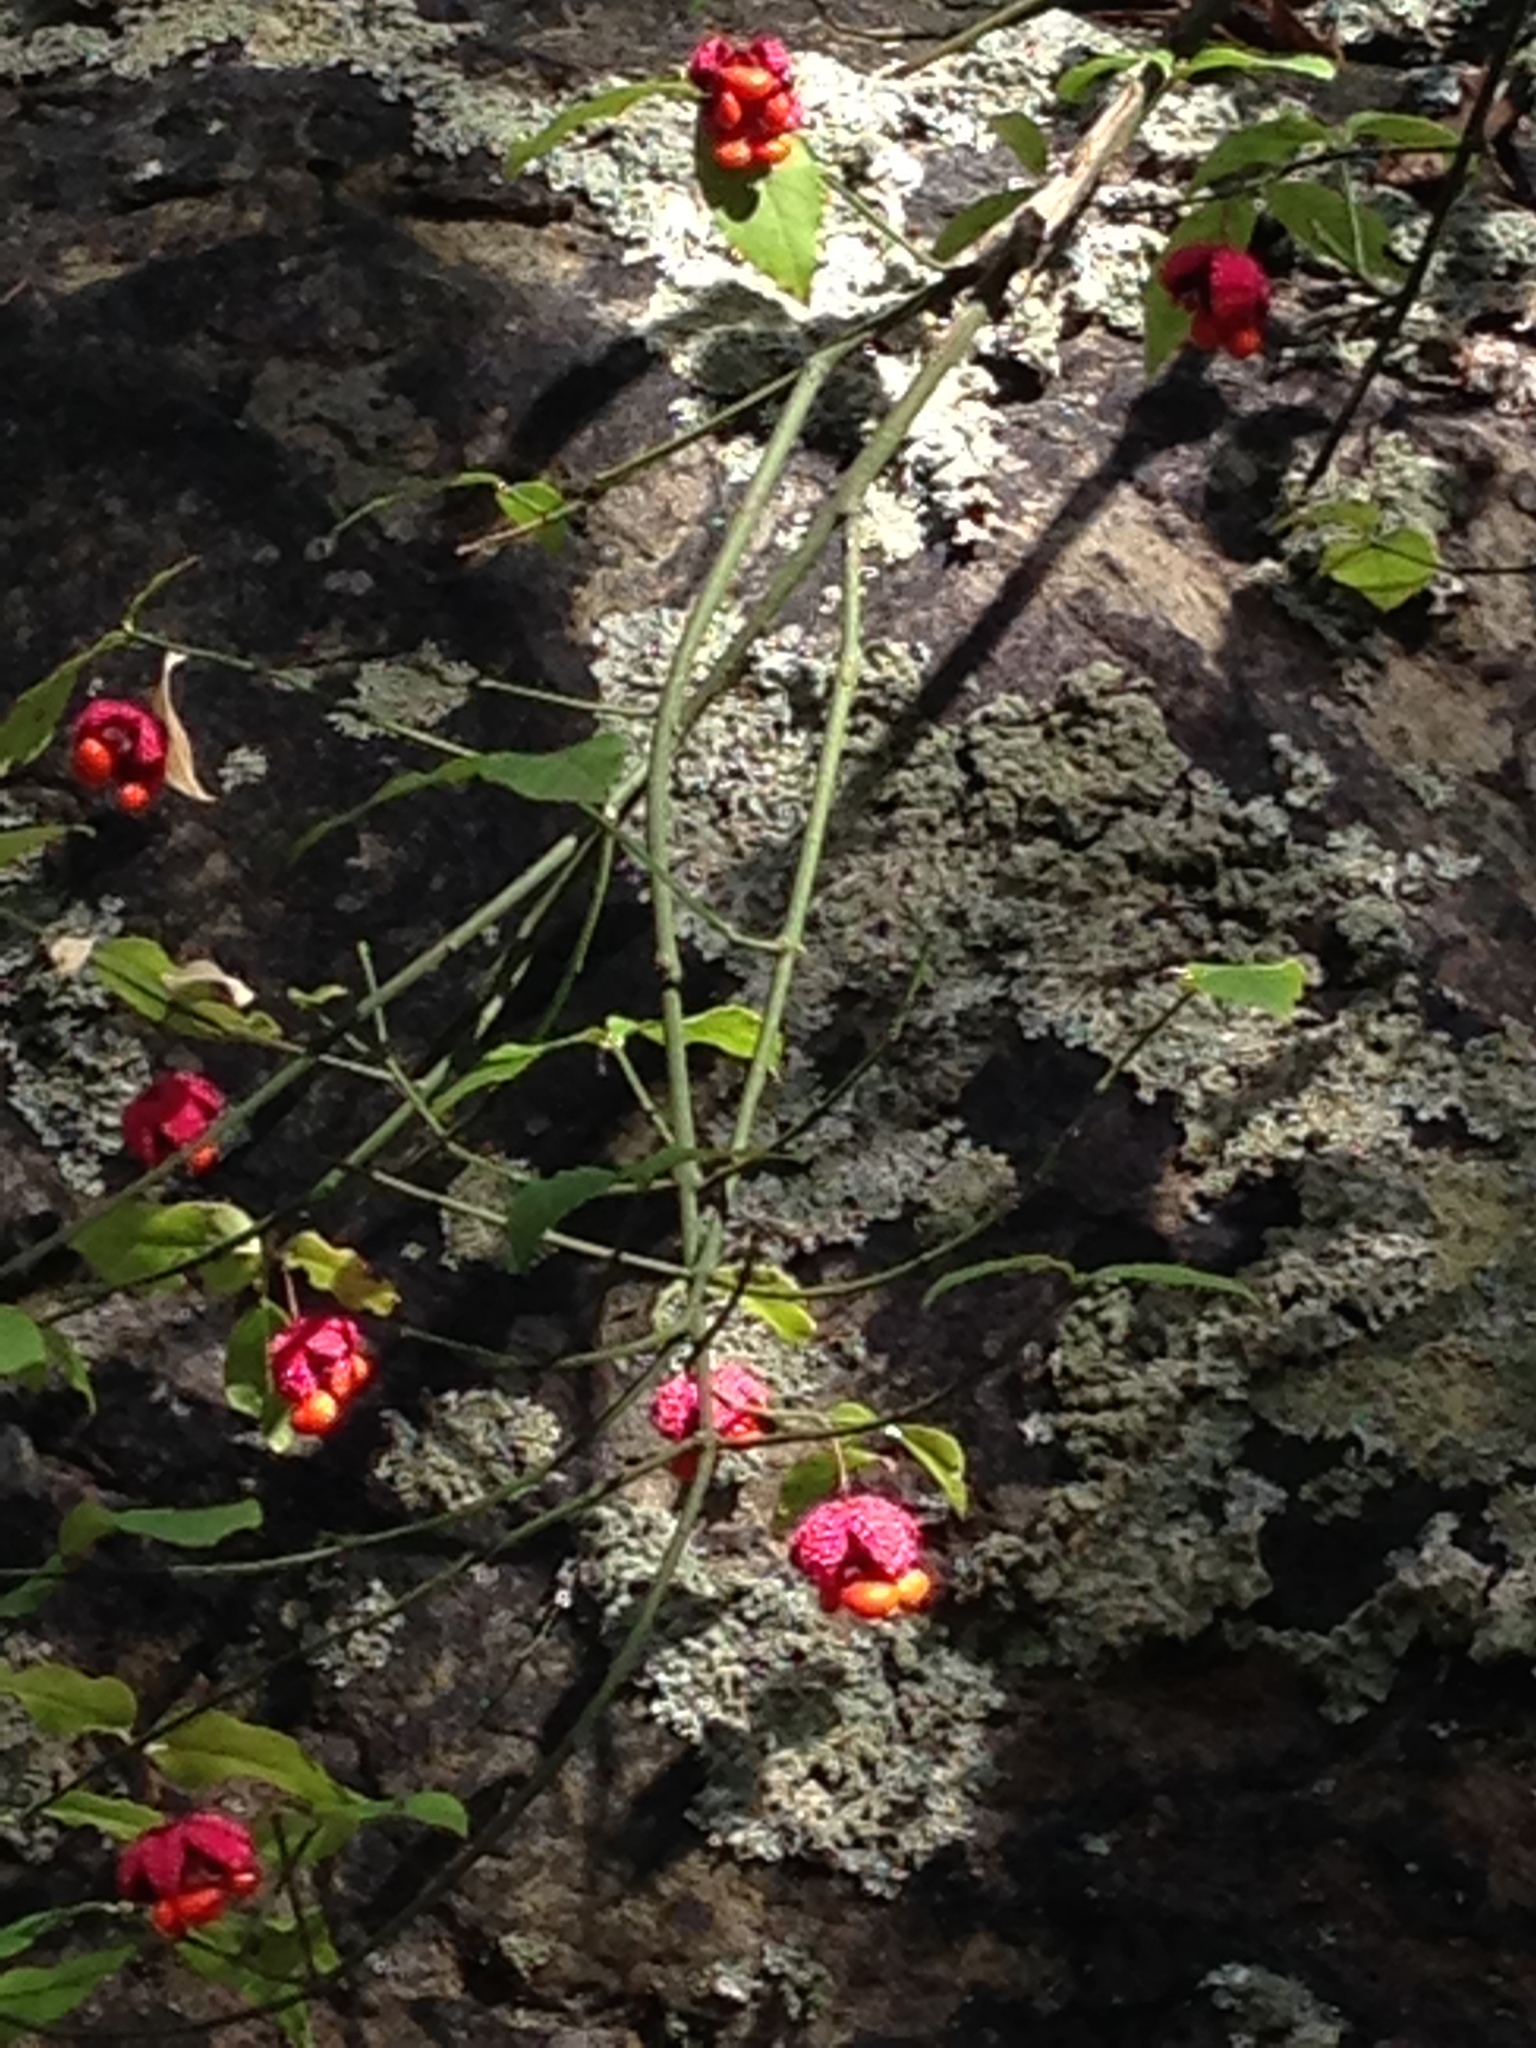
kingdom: Plantae
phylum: Tracheophyta
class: Magnoliopsida
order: Celastrales
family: Celastraceae
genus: Euonymus
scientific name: Euonymus americanus
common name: Bursting-heart
